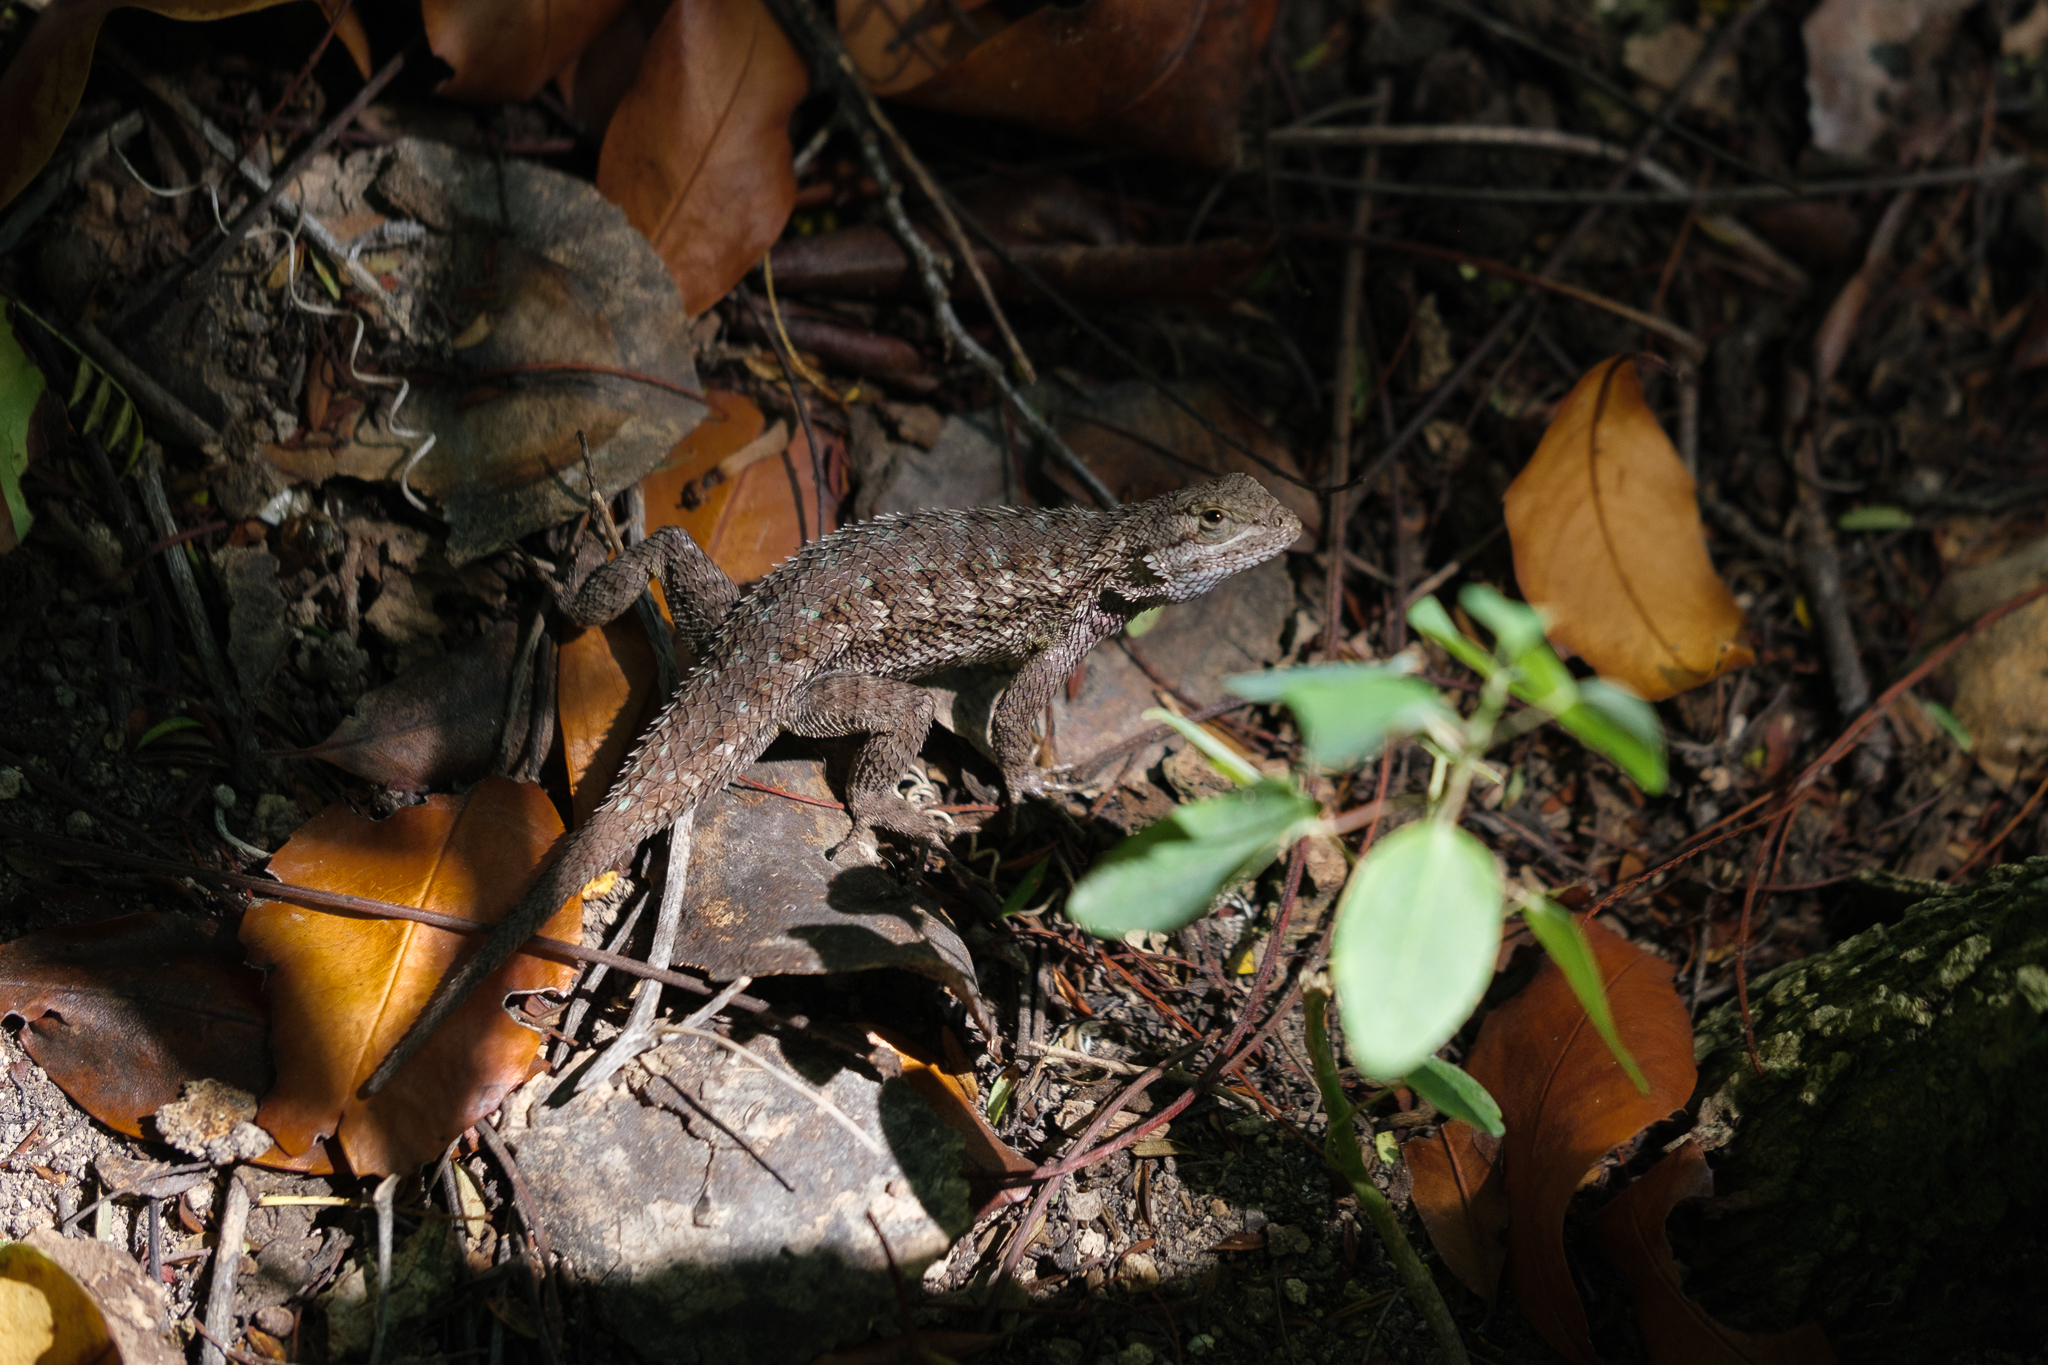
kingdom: Animalia
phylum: Chordata
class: Squamata
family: Phrynosomatidae
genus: Sceloporus
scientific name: Sceloporus occidentalis
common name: Western fence lizard
